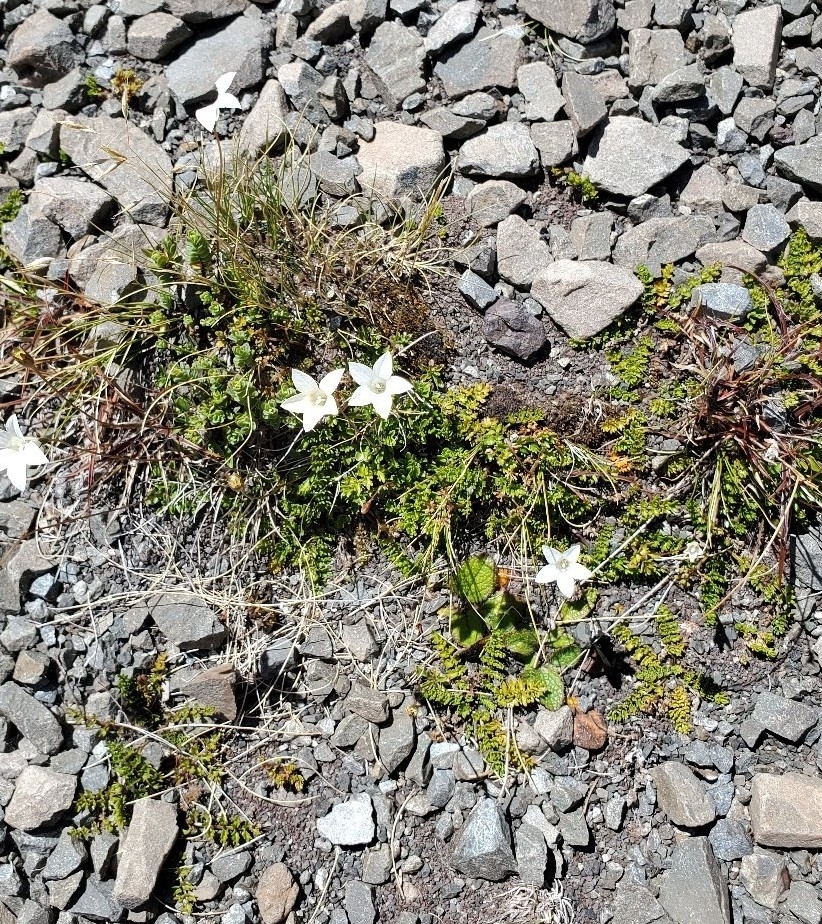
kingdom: Plantae
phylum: Tracheophyta
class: Magnoliopsida
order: Asterales
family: Campanulaceae
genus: Wahlenbergia
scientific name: Wahlenbergia albomarginata
